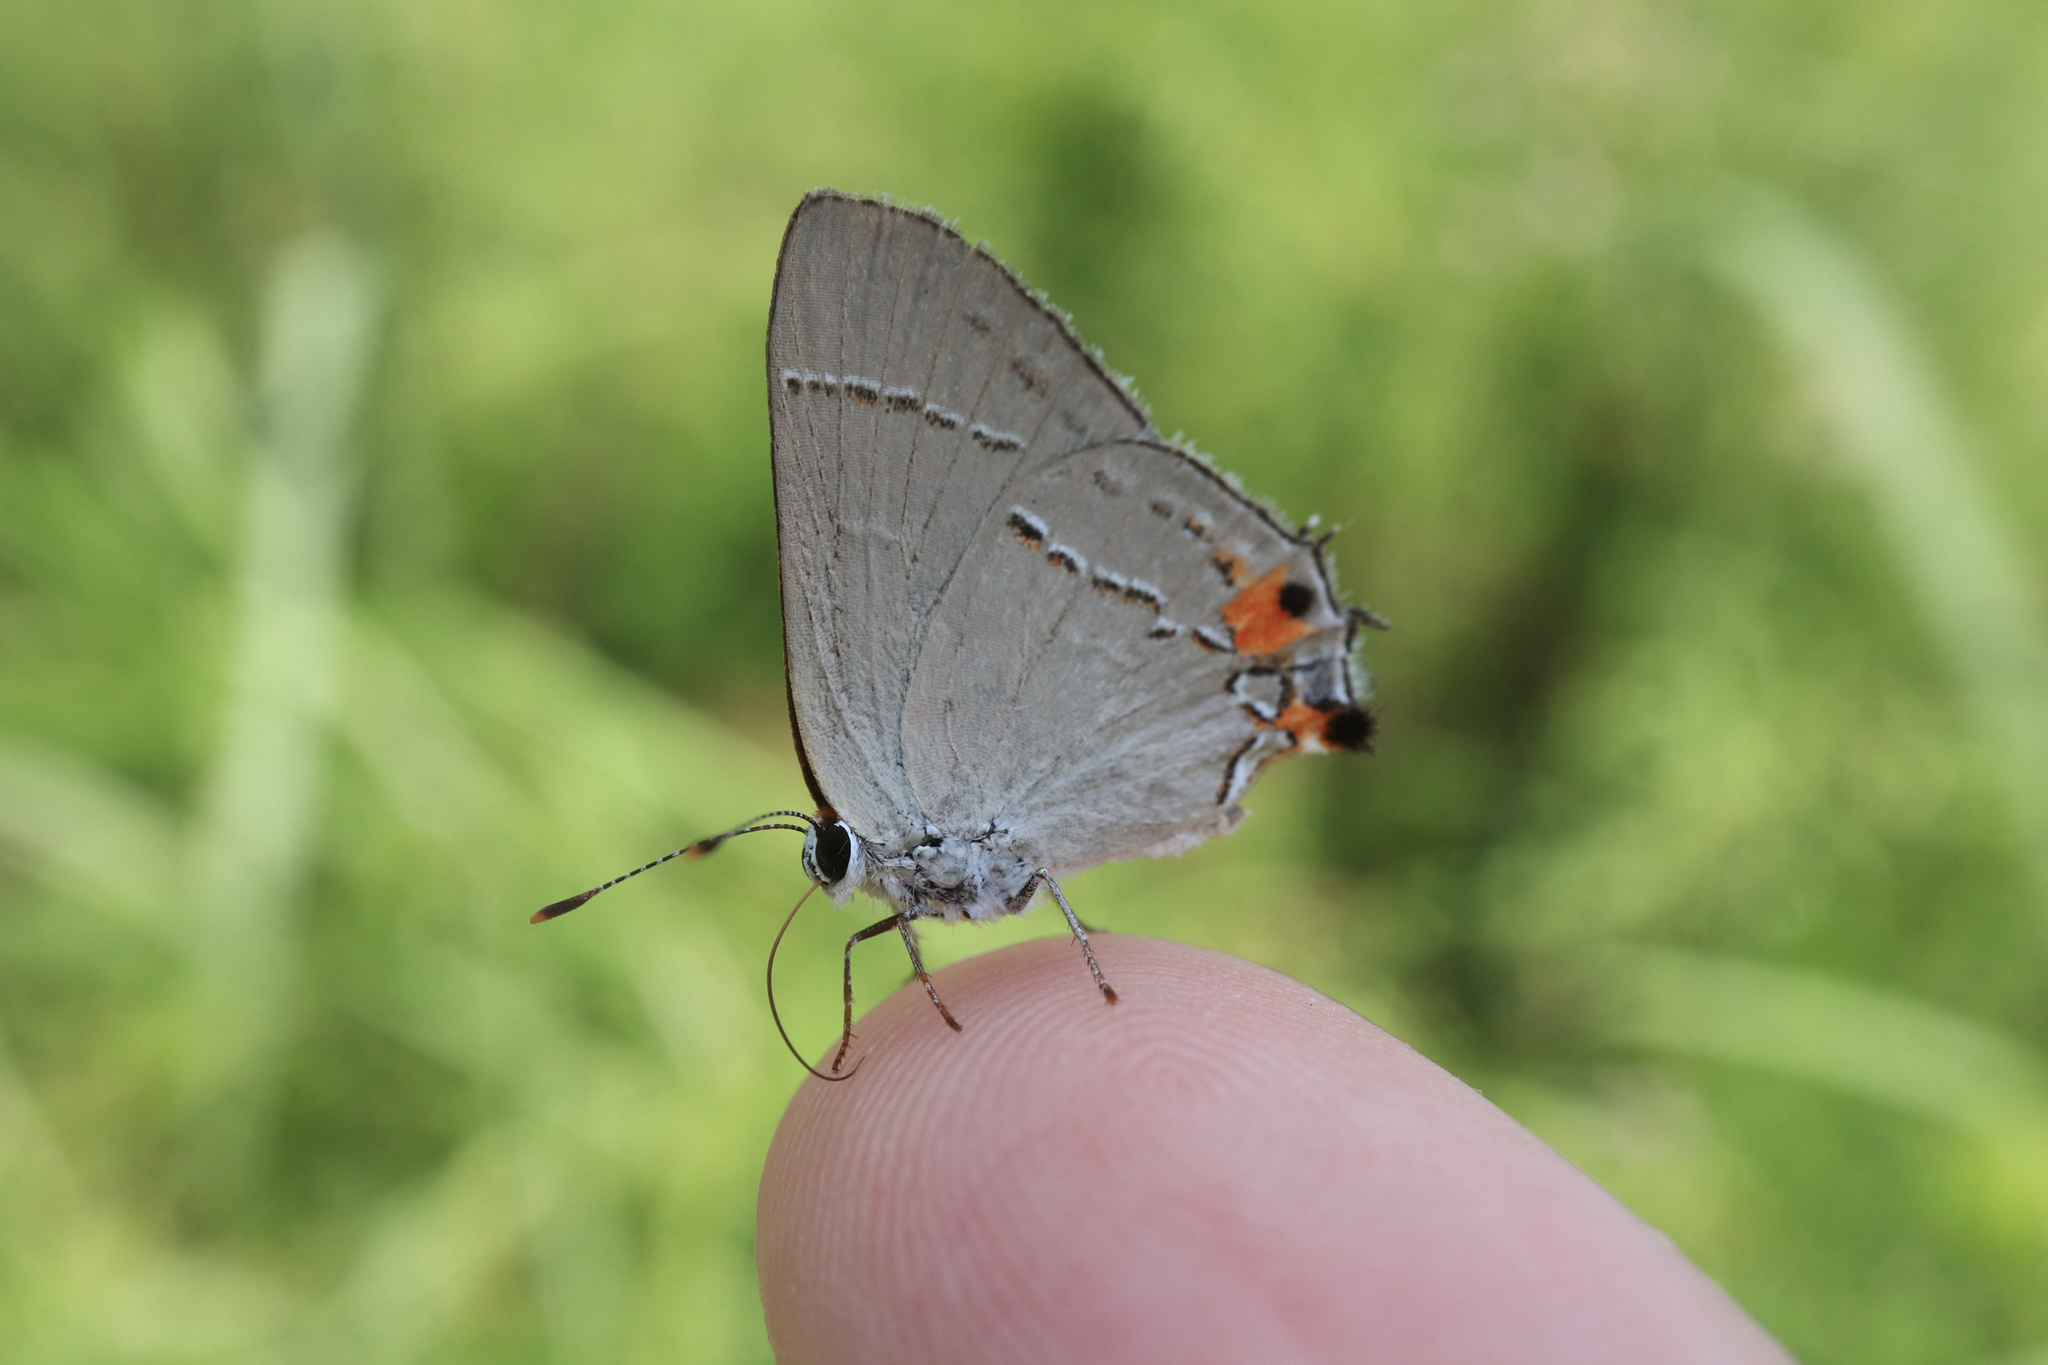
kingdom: Animalia
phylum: Arthropoda
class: Insecta
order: Lepidoptera
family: Lycaenidae
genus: Strymon
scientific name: Strymon melinus
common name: Gray hairstreak
